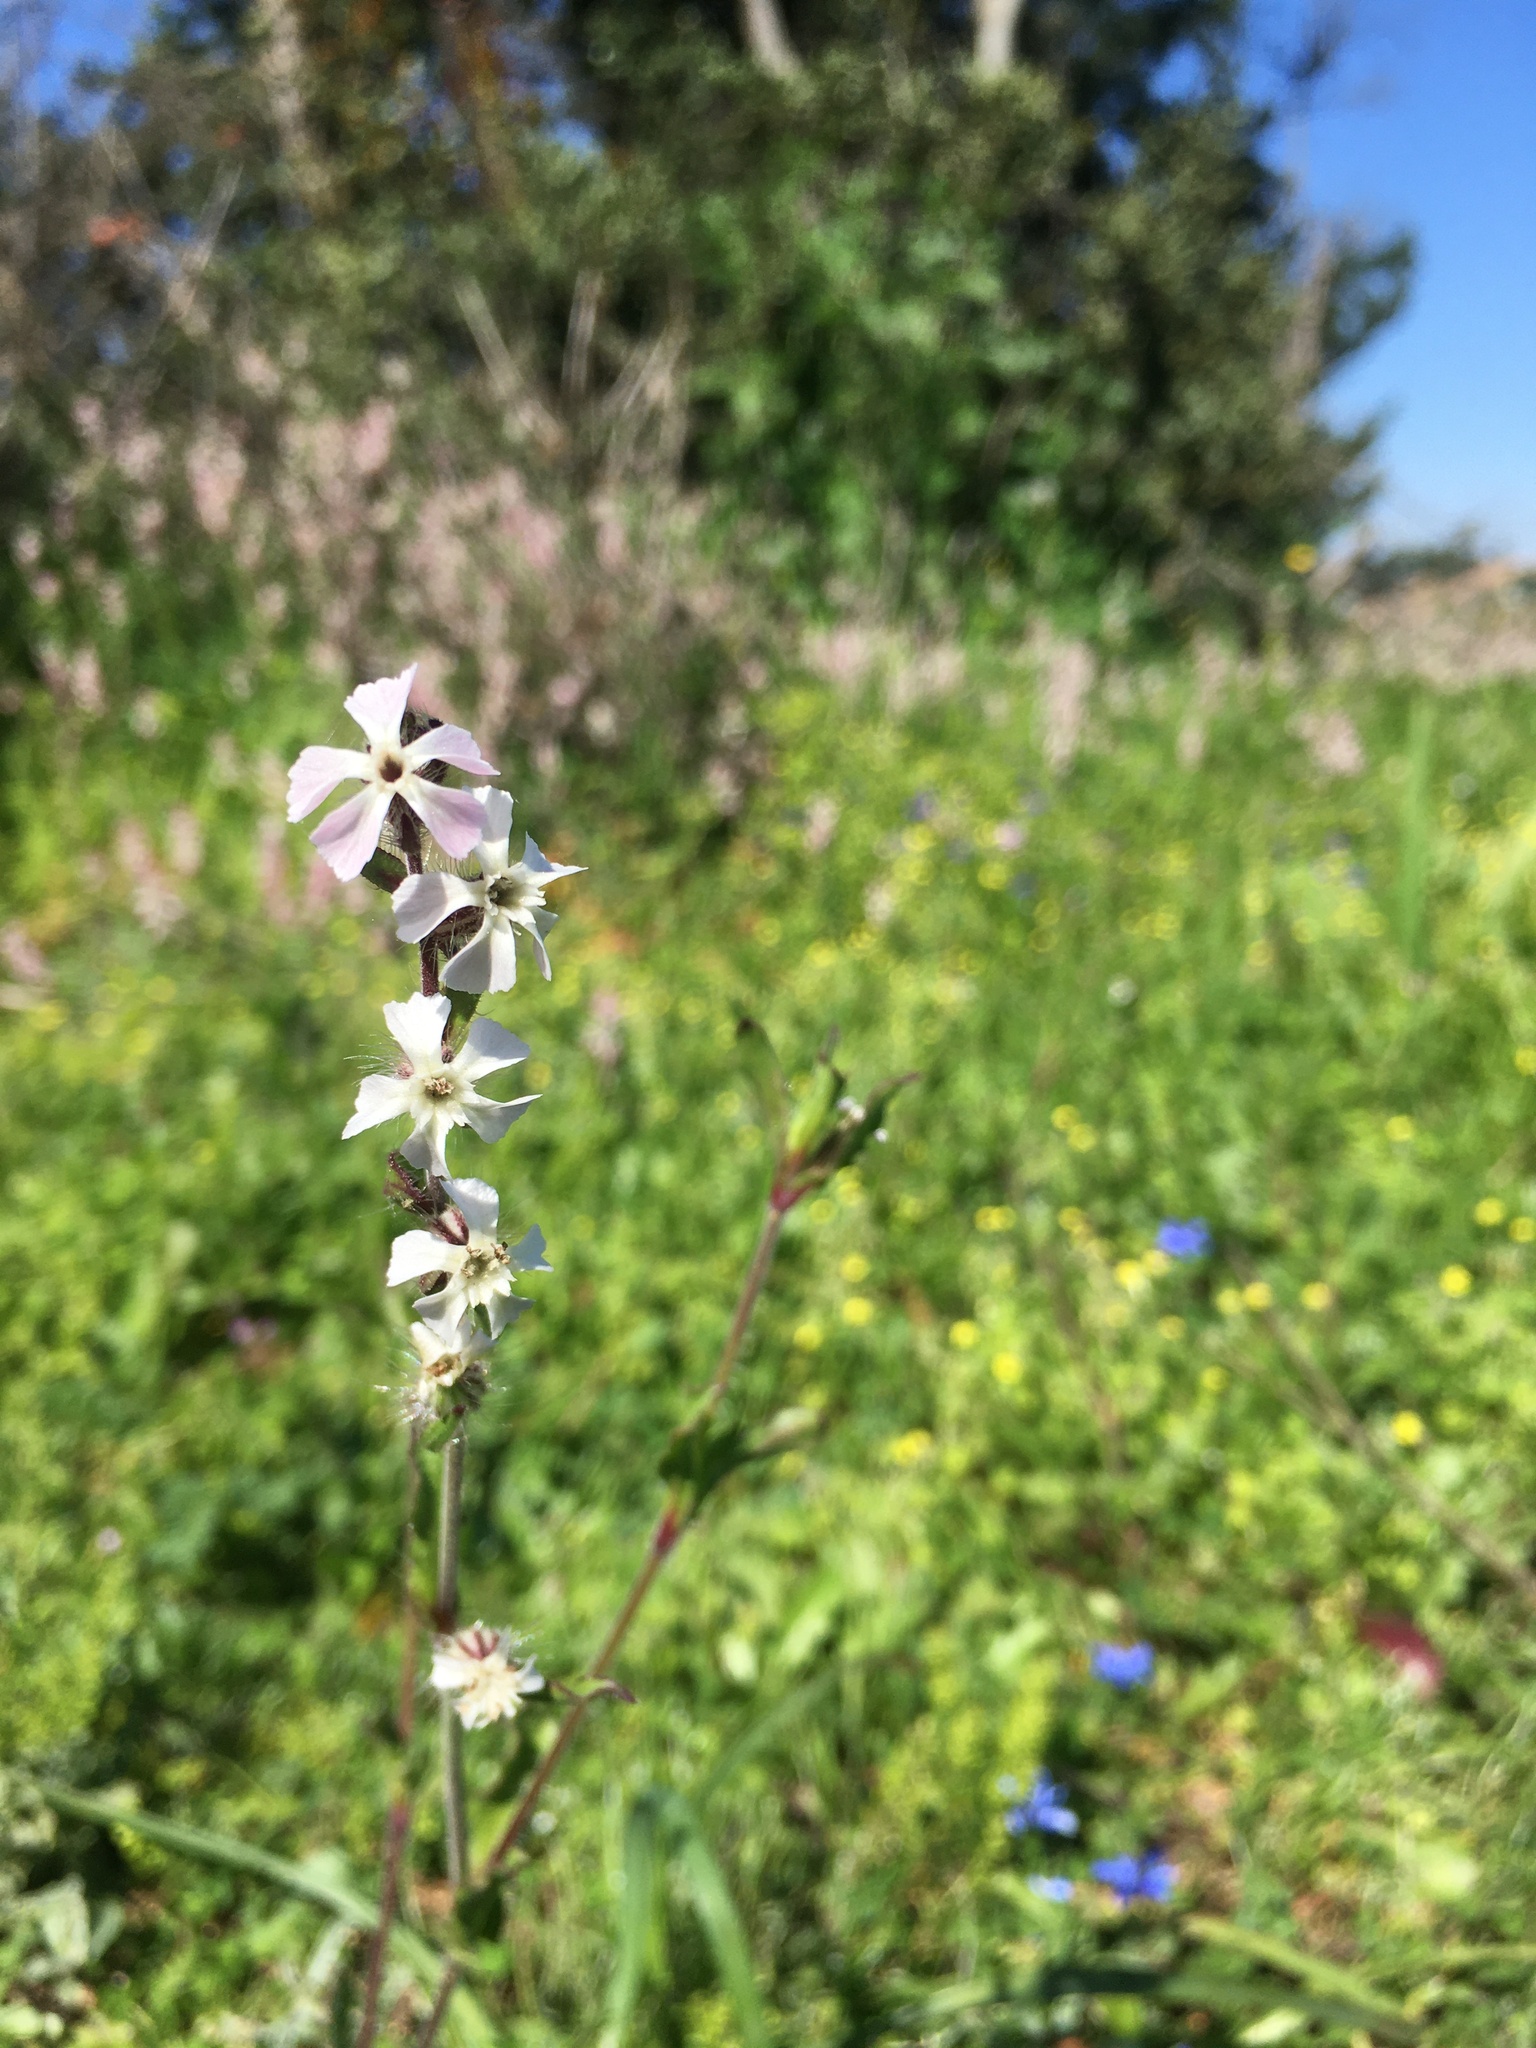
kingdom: Plantae
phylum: Tracheophyta
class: Magnoliopsida
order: Caryophyllales
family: Caryophyllaceae
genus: Silene
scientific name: Silene gallica
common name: Small-flowered catchfly
